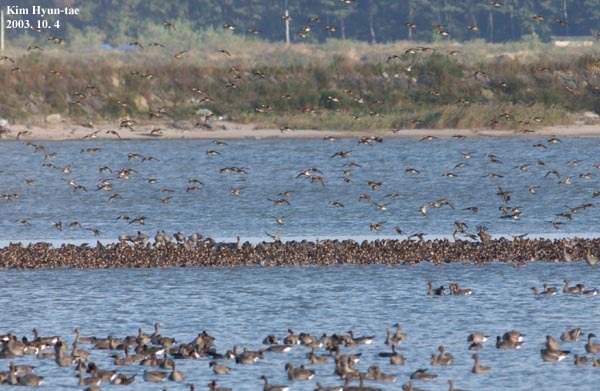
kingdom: Animalia
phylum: Chordata
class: Aves
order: Anseriformes
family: Anatidae
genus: Sibirionetta
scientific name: Sibirionetta formosa
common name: Baikal teal
